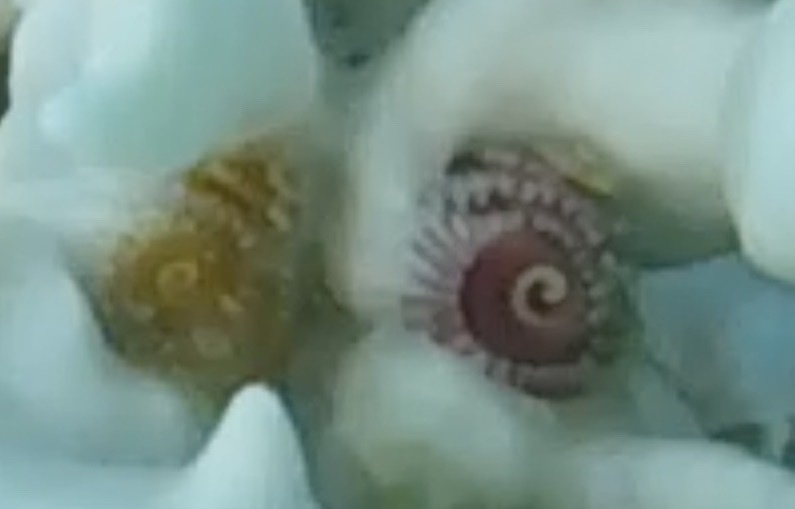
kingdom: Animalia
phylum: Annelida
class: Polychaeta
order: Sabellida
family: Serpulidae
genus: Spirobranchus
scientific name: Spirobranchus giganteus
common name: Christmas tree worm
